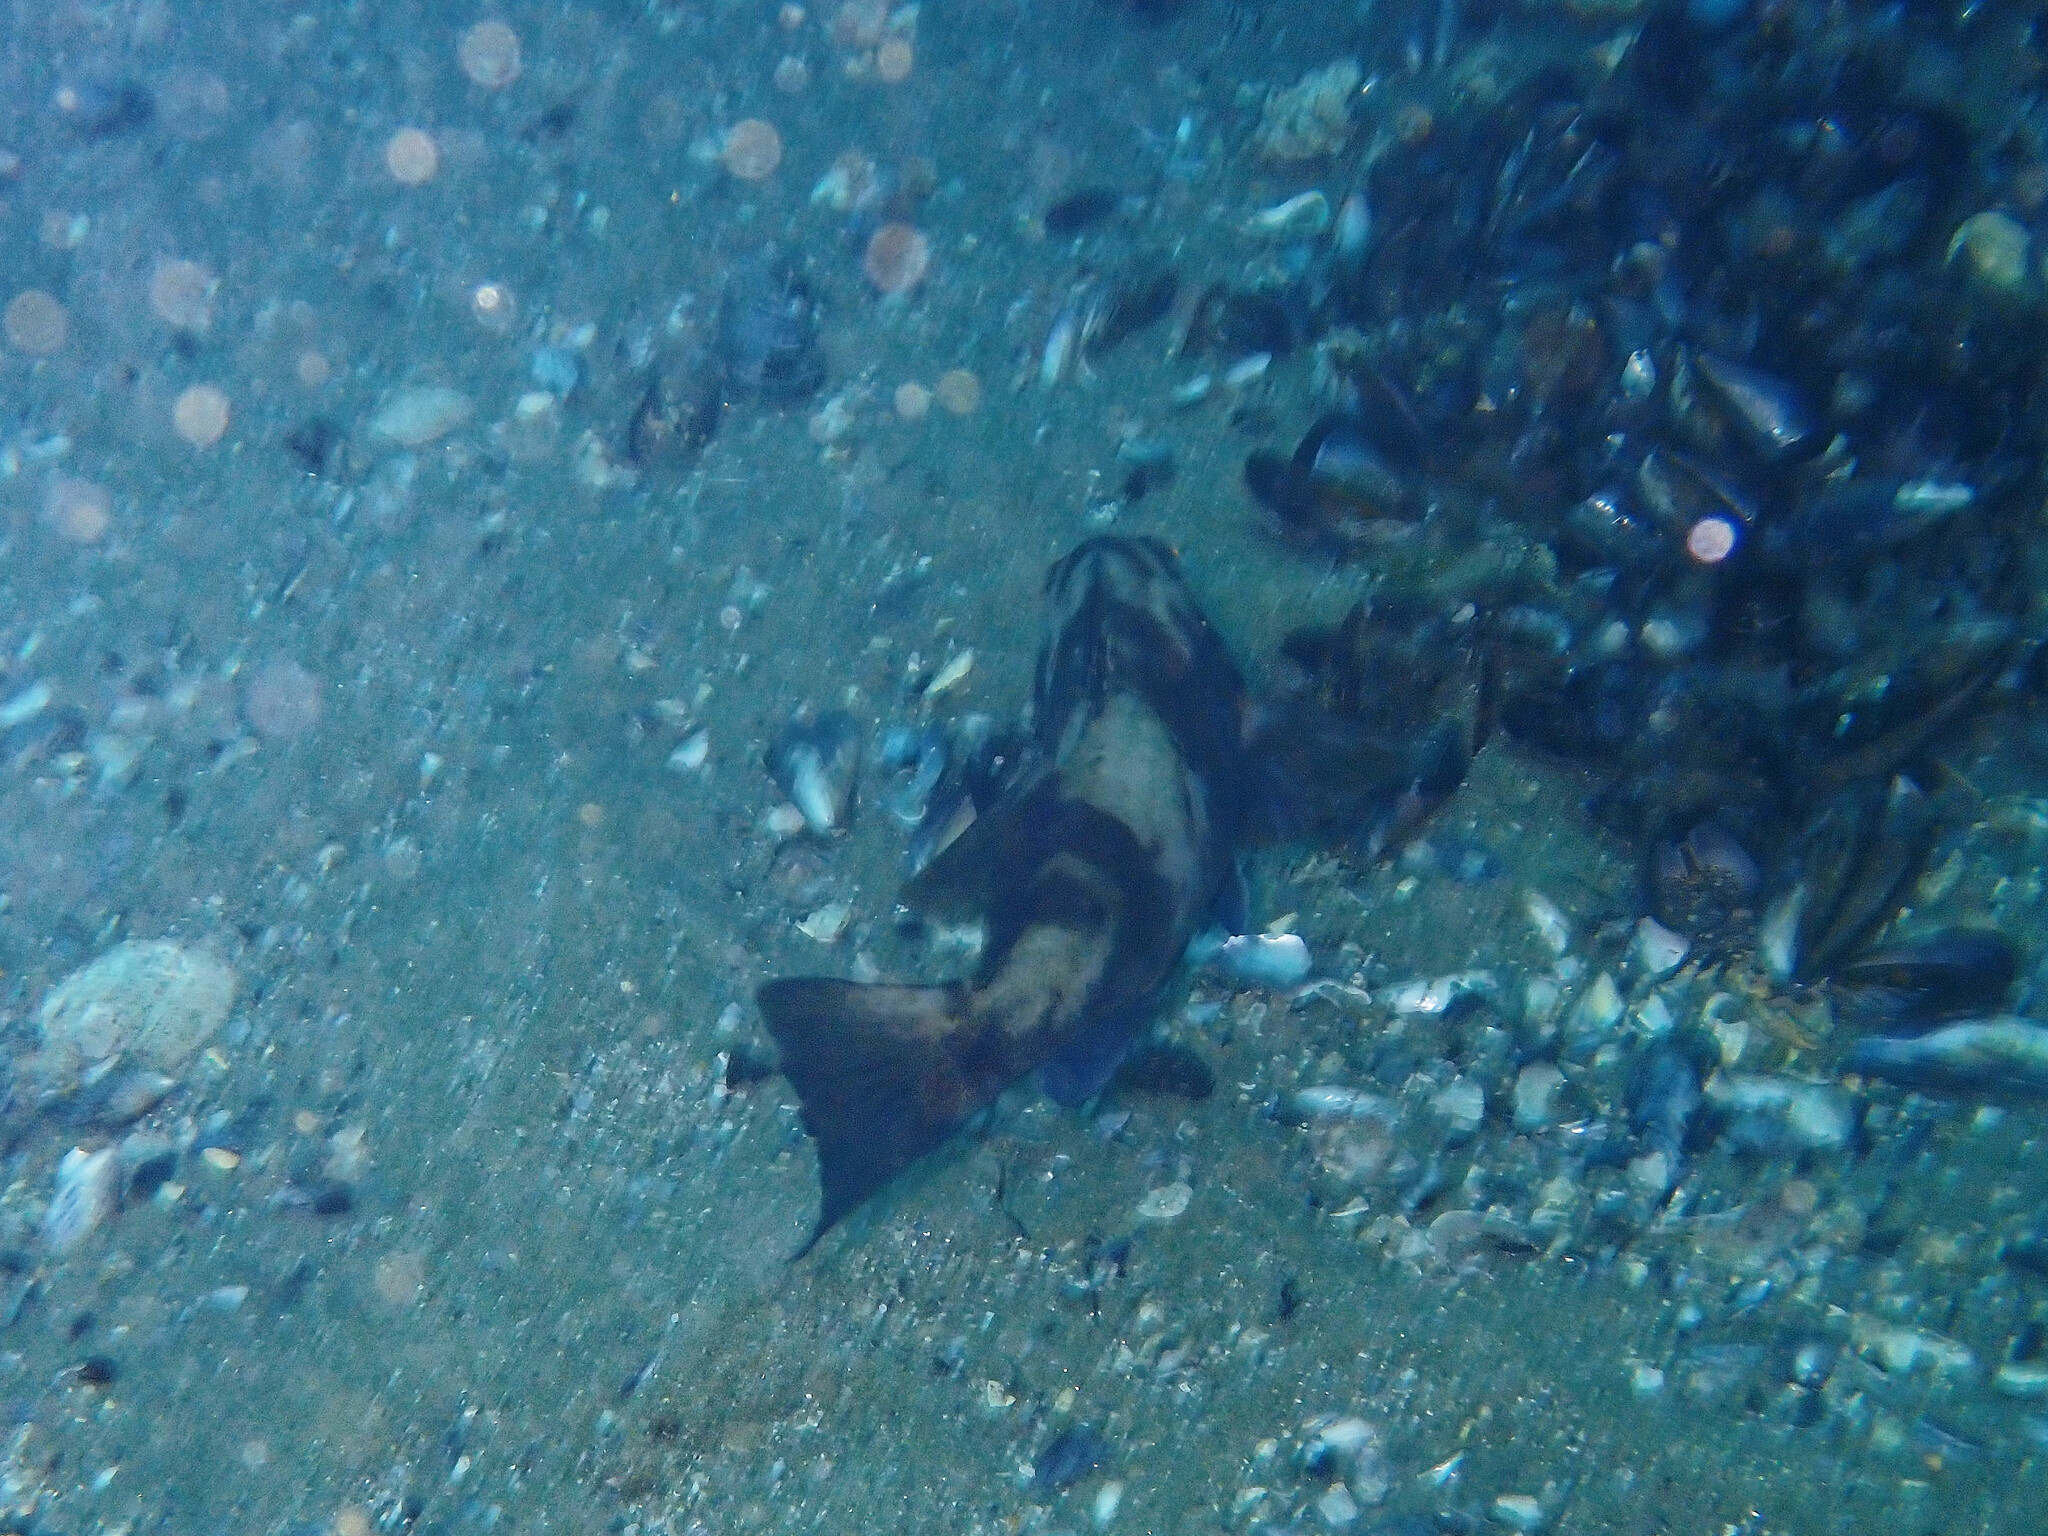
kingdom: Animalia
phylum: Chordata
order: Perciformes
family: Serranidae
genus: Paralabrax
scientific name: Paralabrax nebulifer
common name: Barred sand bass
